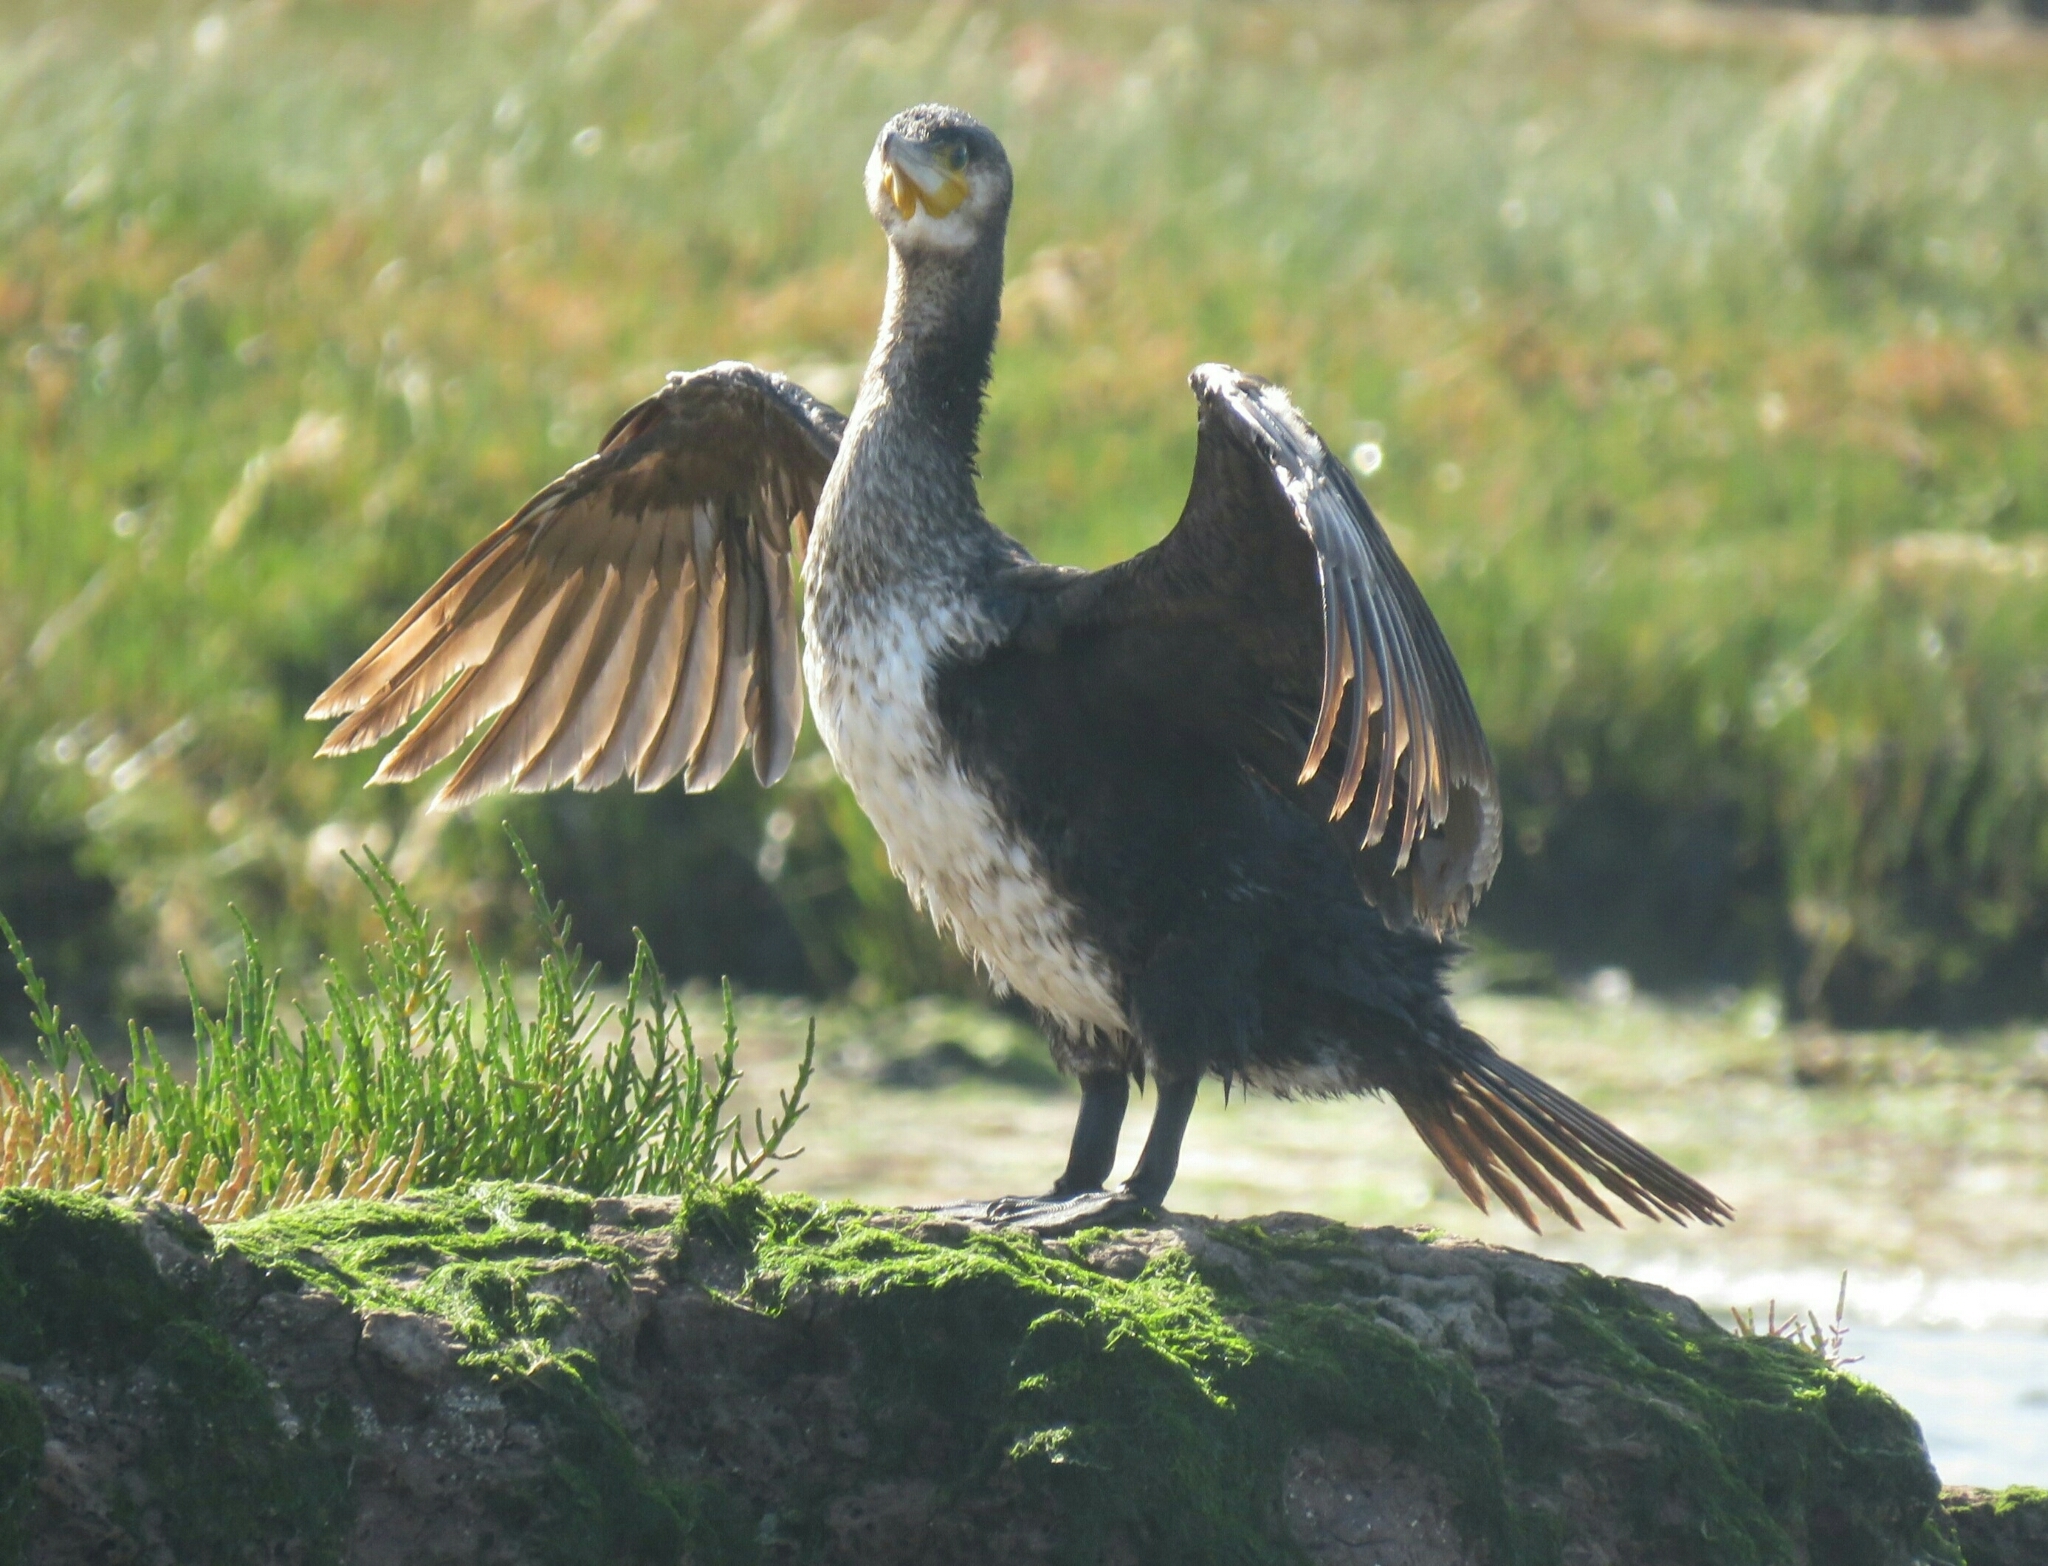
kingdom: Animalia
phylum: Chordata
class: Aves
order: Suliformes
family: Phalacrocoracidae
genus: Phalacrocorax
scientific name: Phalacrocorax carbo
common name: Great cormorant
